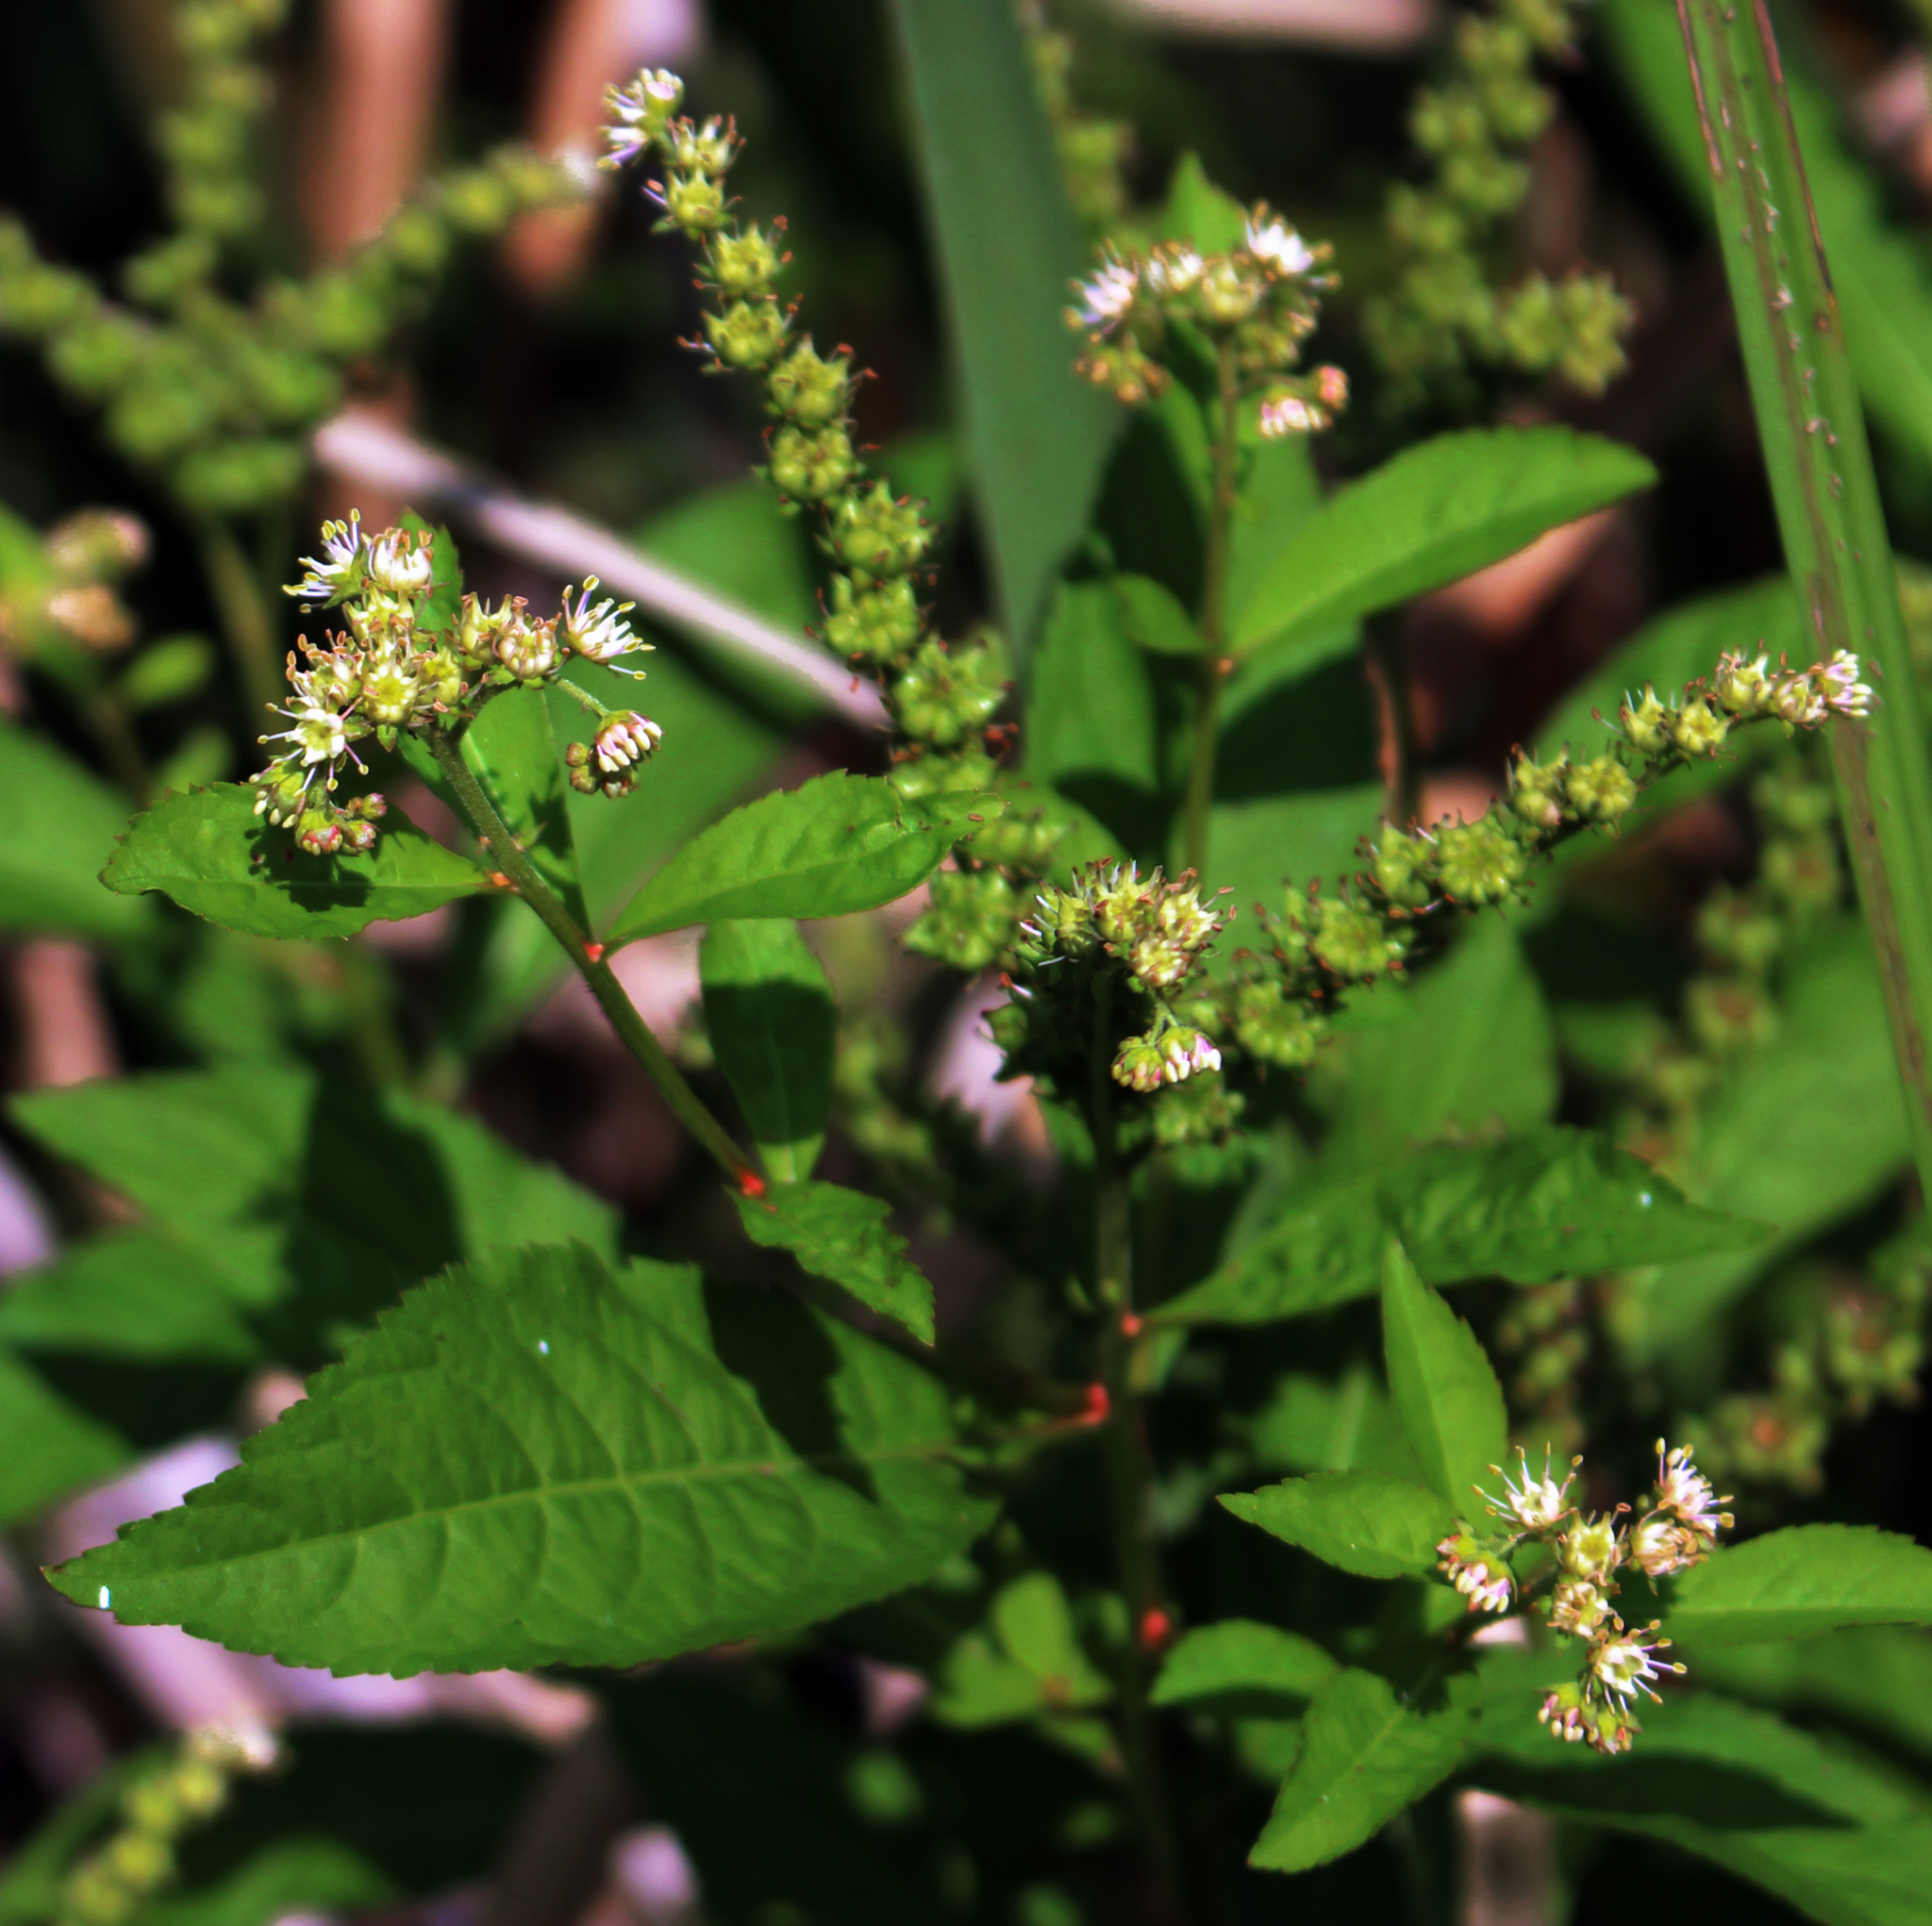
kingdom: Plantae
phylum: Tracheophyta
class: Magnoliopsida
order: Saxifragales
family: Penthoraceae
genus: Penthorum
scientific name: Penthorum sedoides
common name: Ditch stonecrop
